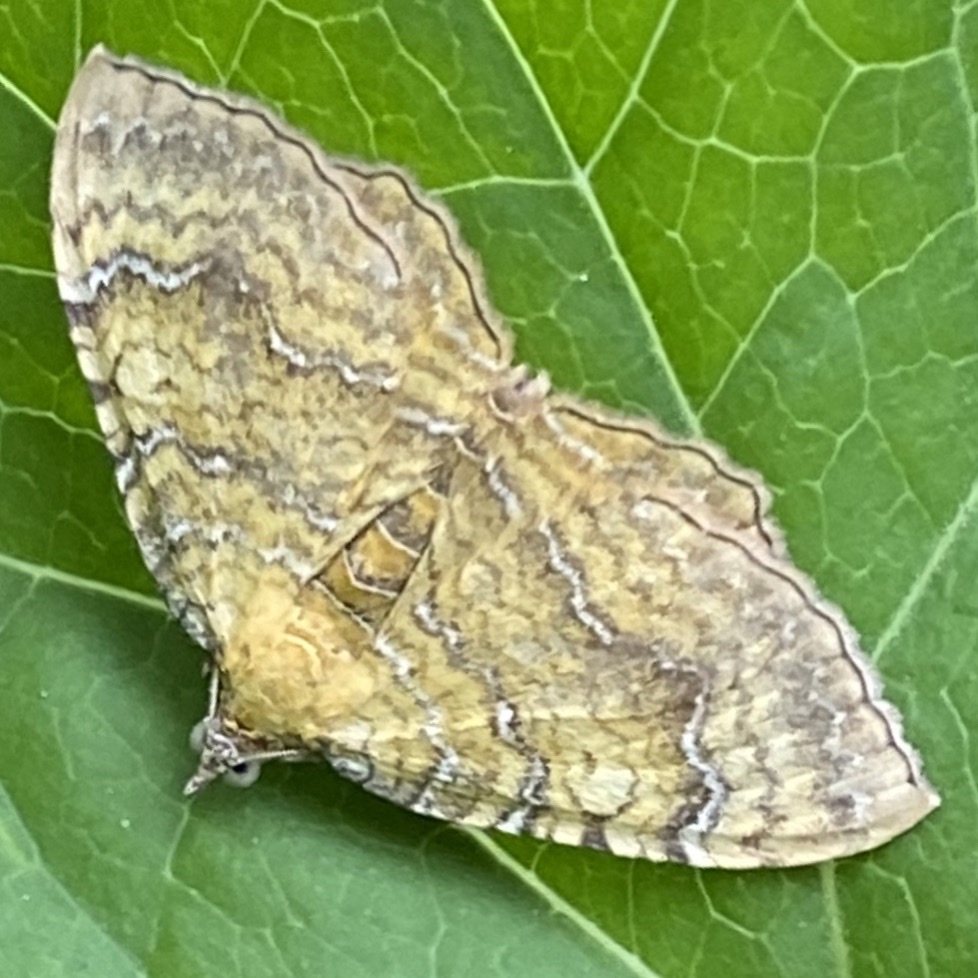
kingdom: Animalia
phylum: Arthropoda
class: Insecta
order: Lepidoptera
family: Geometridae
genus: Camptogramma
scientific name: Camptogramma bilineata
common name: Yellow shell
